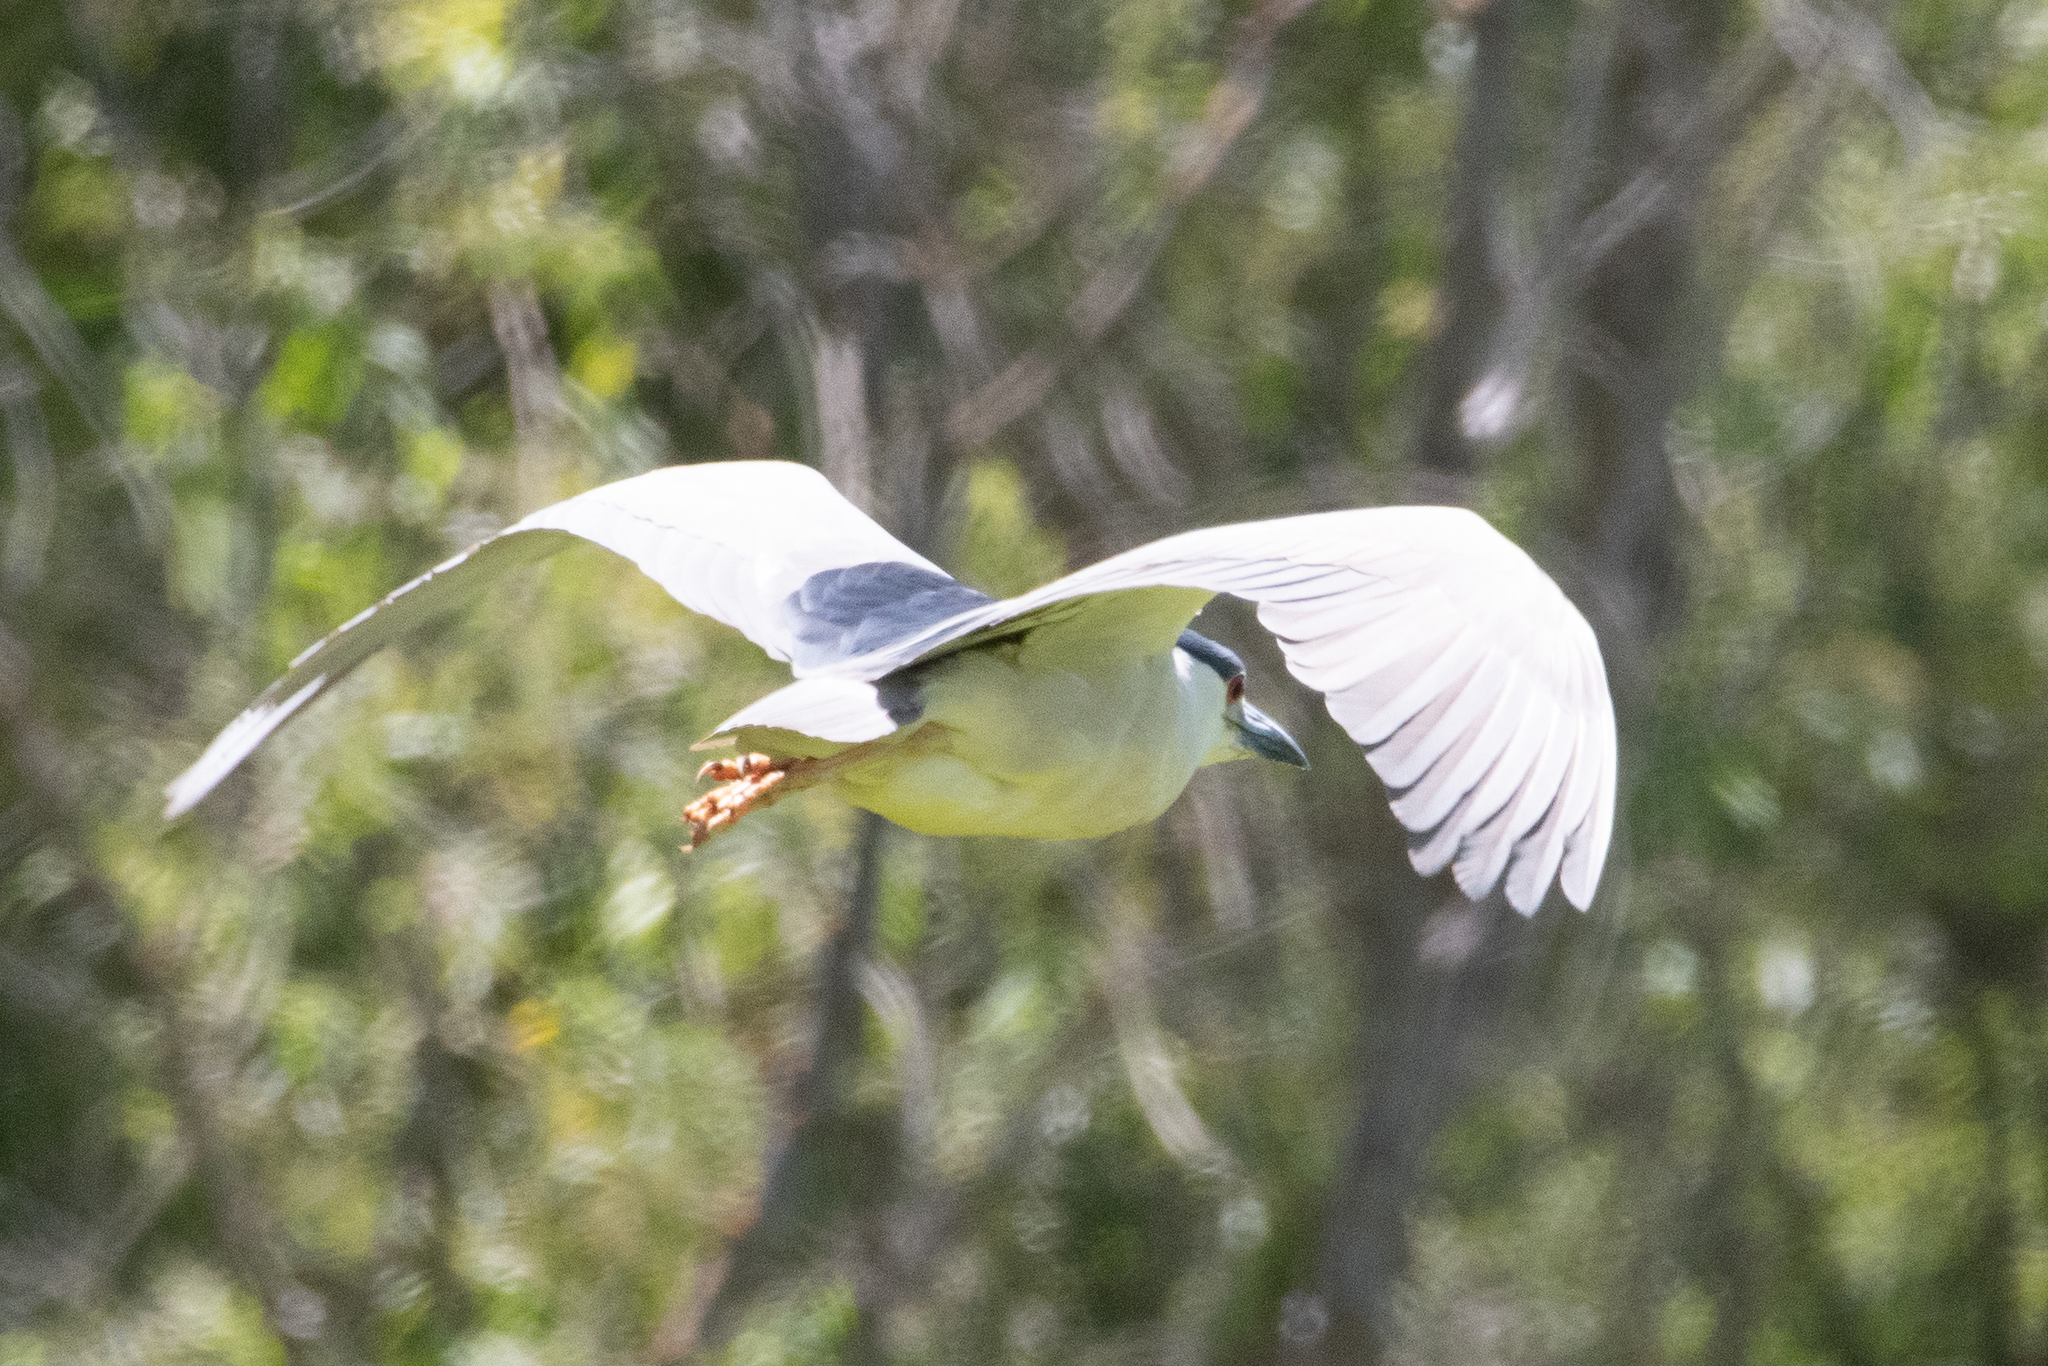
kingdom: Animalia
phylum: Chordata
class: Aves
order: Pelecaniformes
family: Ardeidae
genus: Nycticorax
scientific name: Nycticorax nycticorax
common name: Black-crowned night heron
